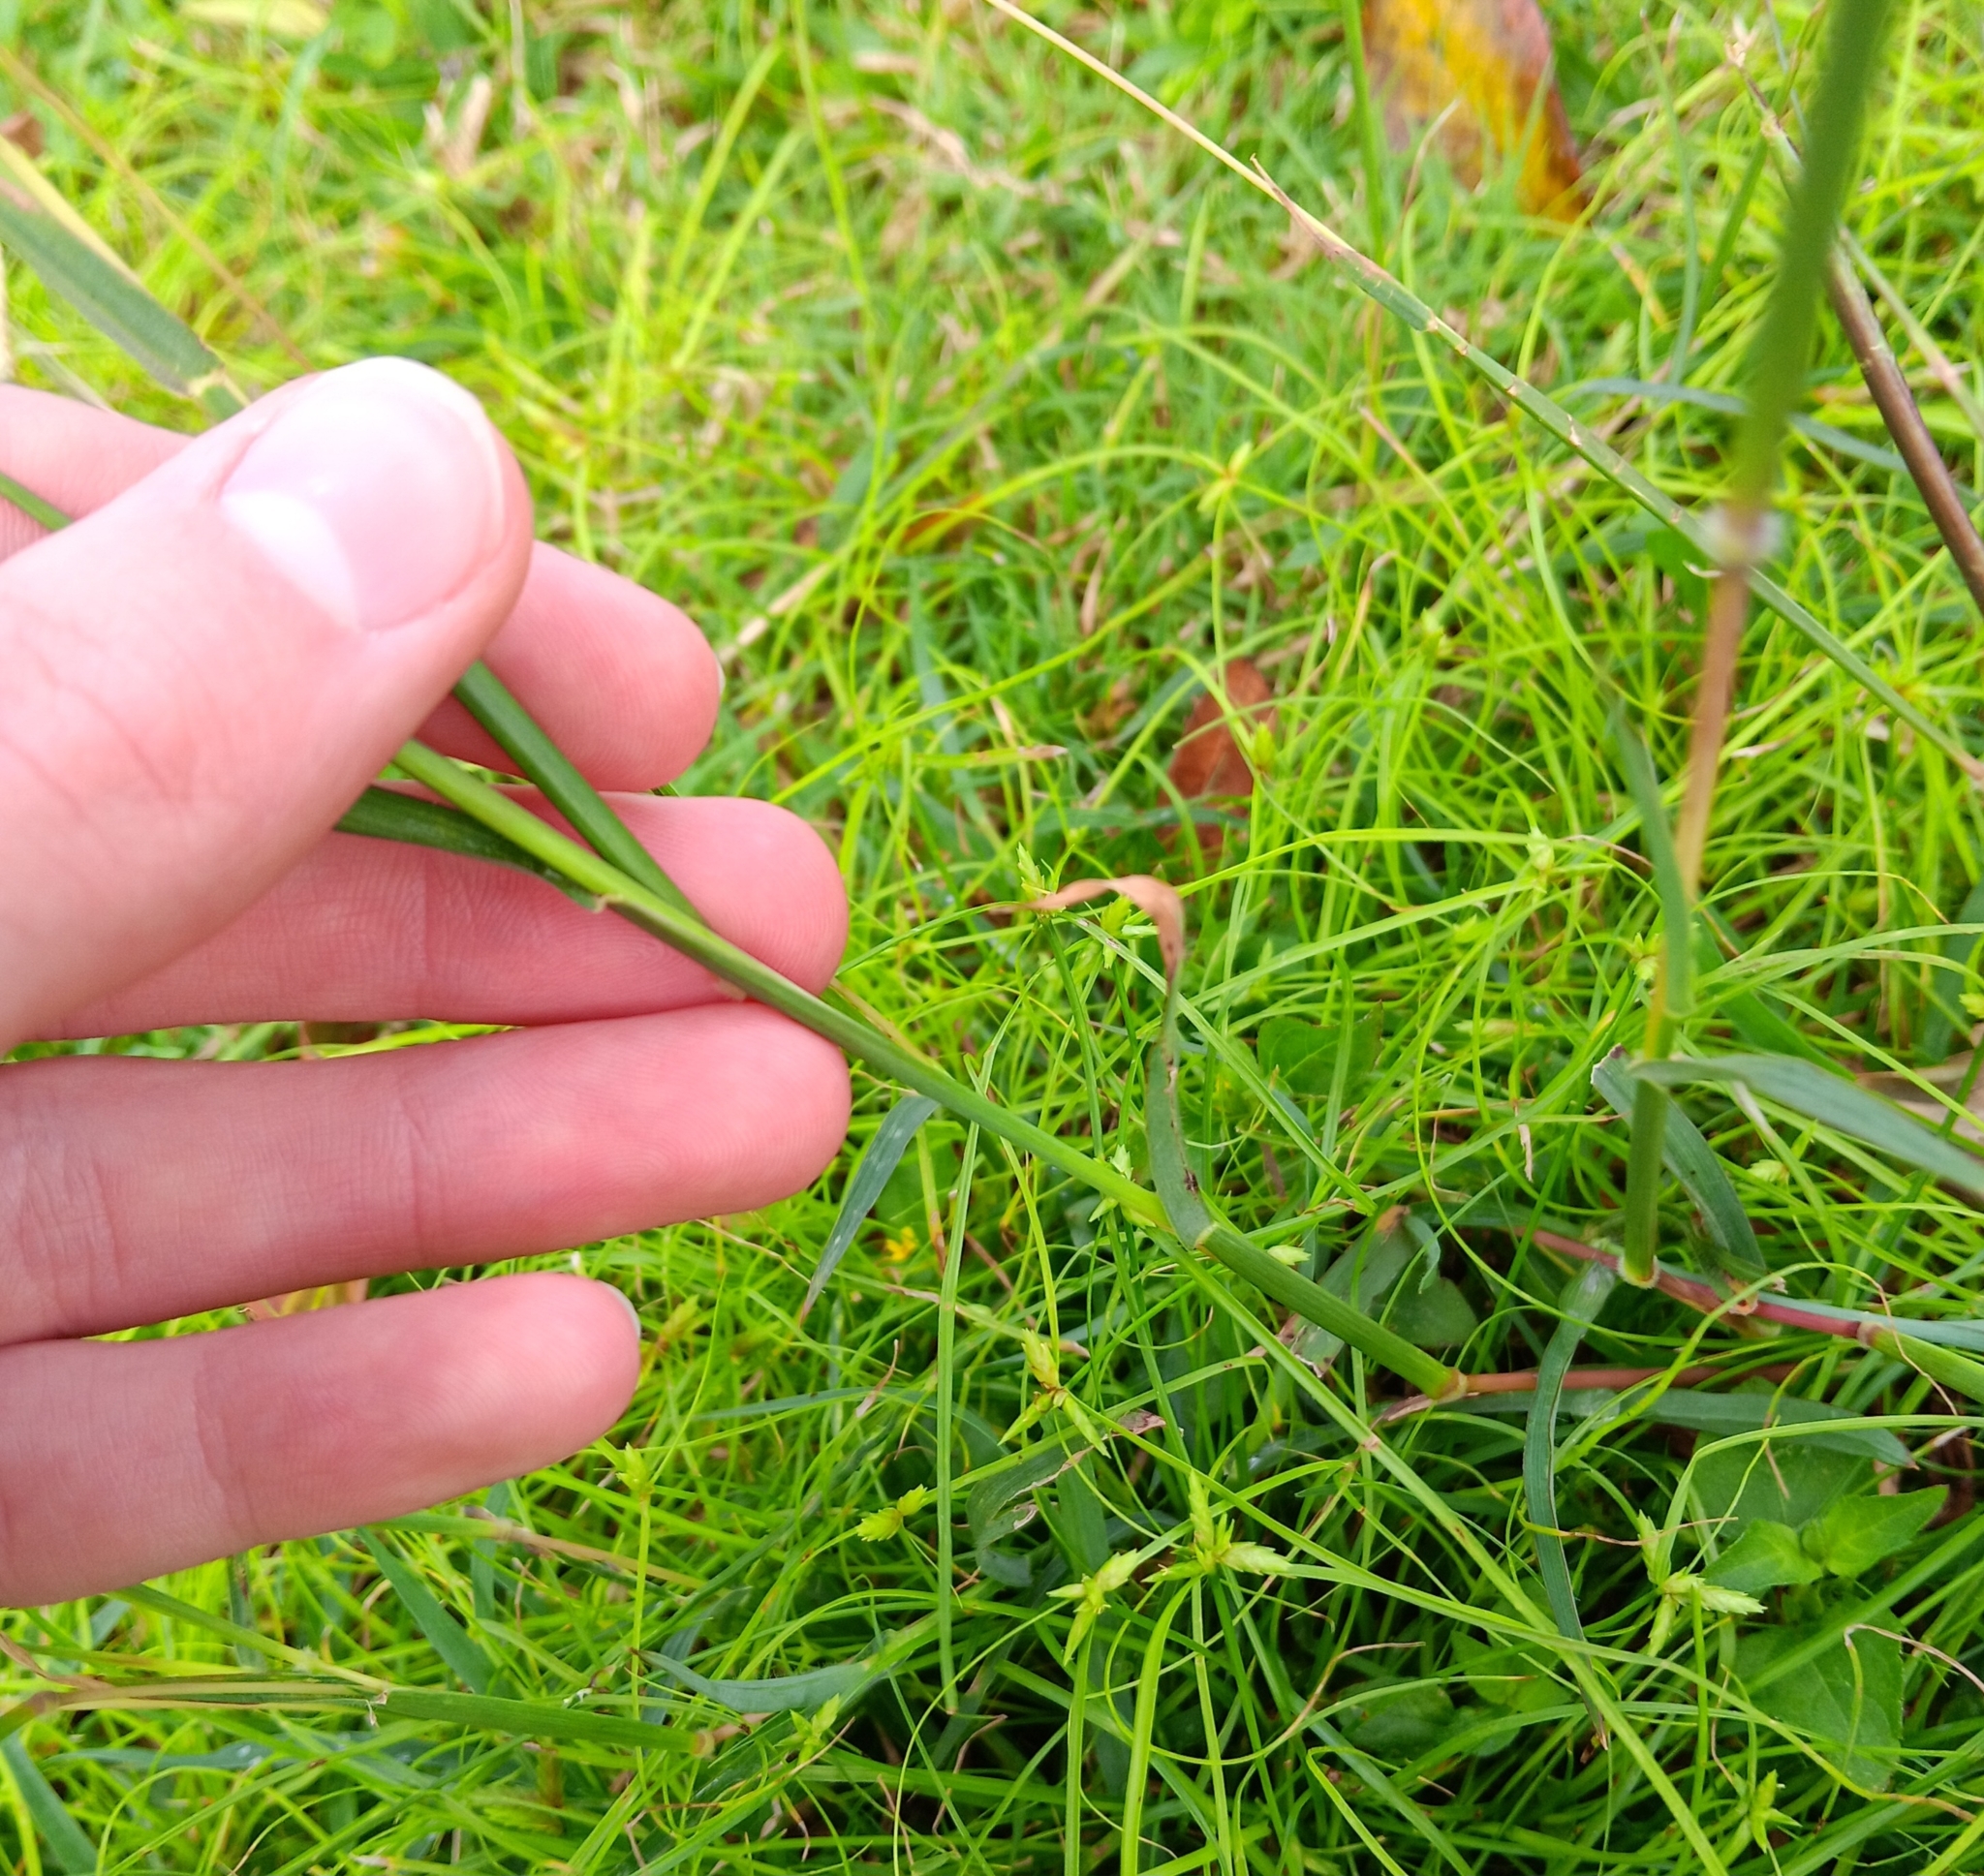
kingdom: Plantae
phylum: Tracheophyta
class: Liliopsida
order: Poales
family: Poaceae
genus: Dichanthium
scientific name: Dichanthium aristatum
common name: Angleton bluestem
